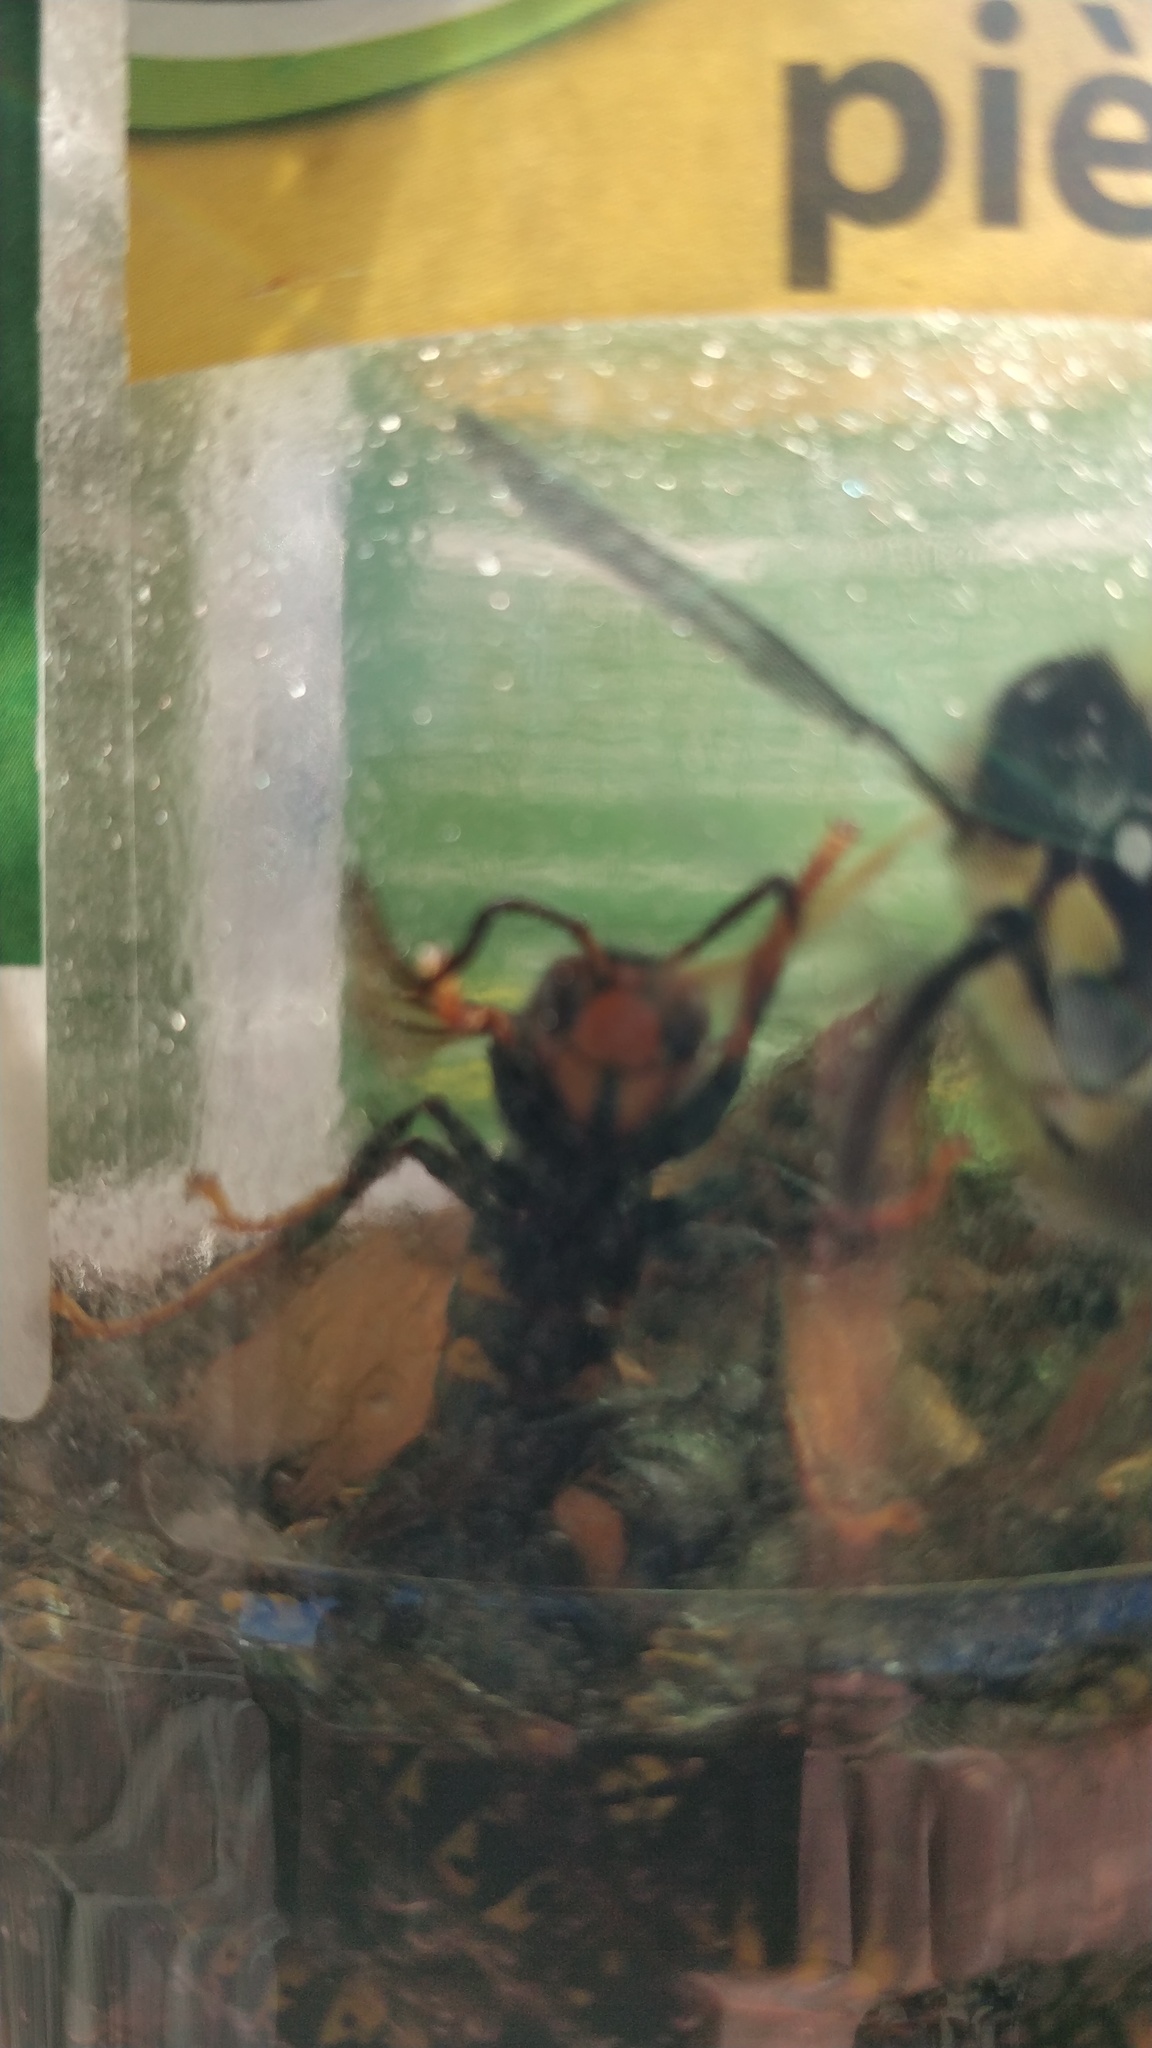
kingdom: Animalia
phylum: Arthropoda
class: Insecta
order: Hymenoptera
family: Vespidae
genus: Vespa
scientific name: Vespa velutina
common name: Asian hornet
